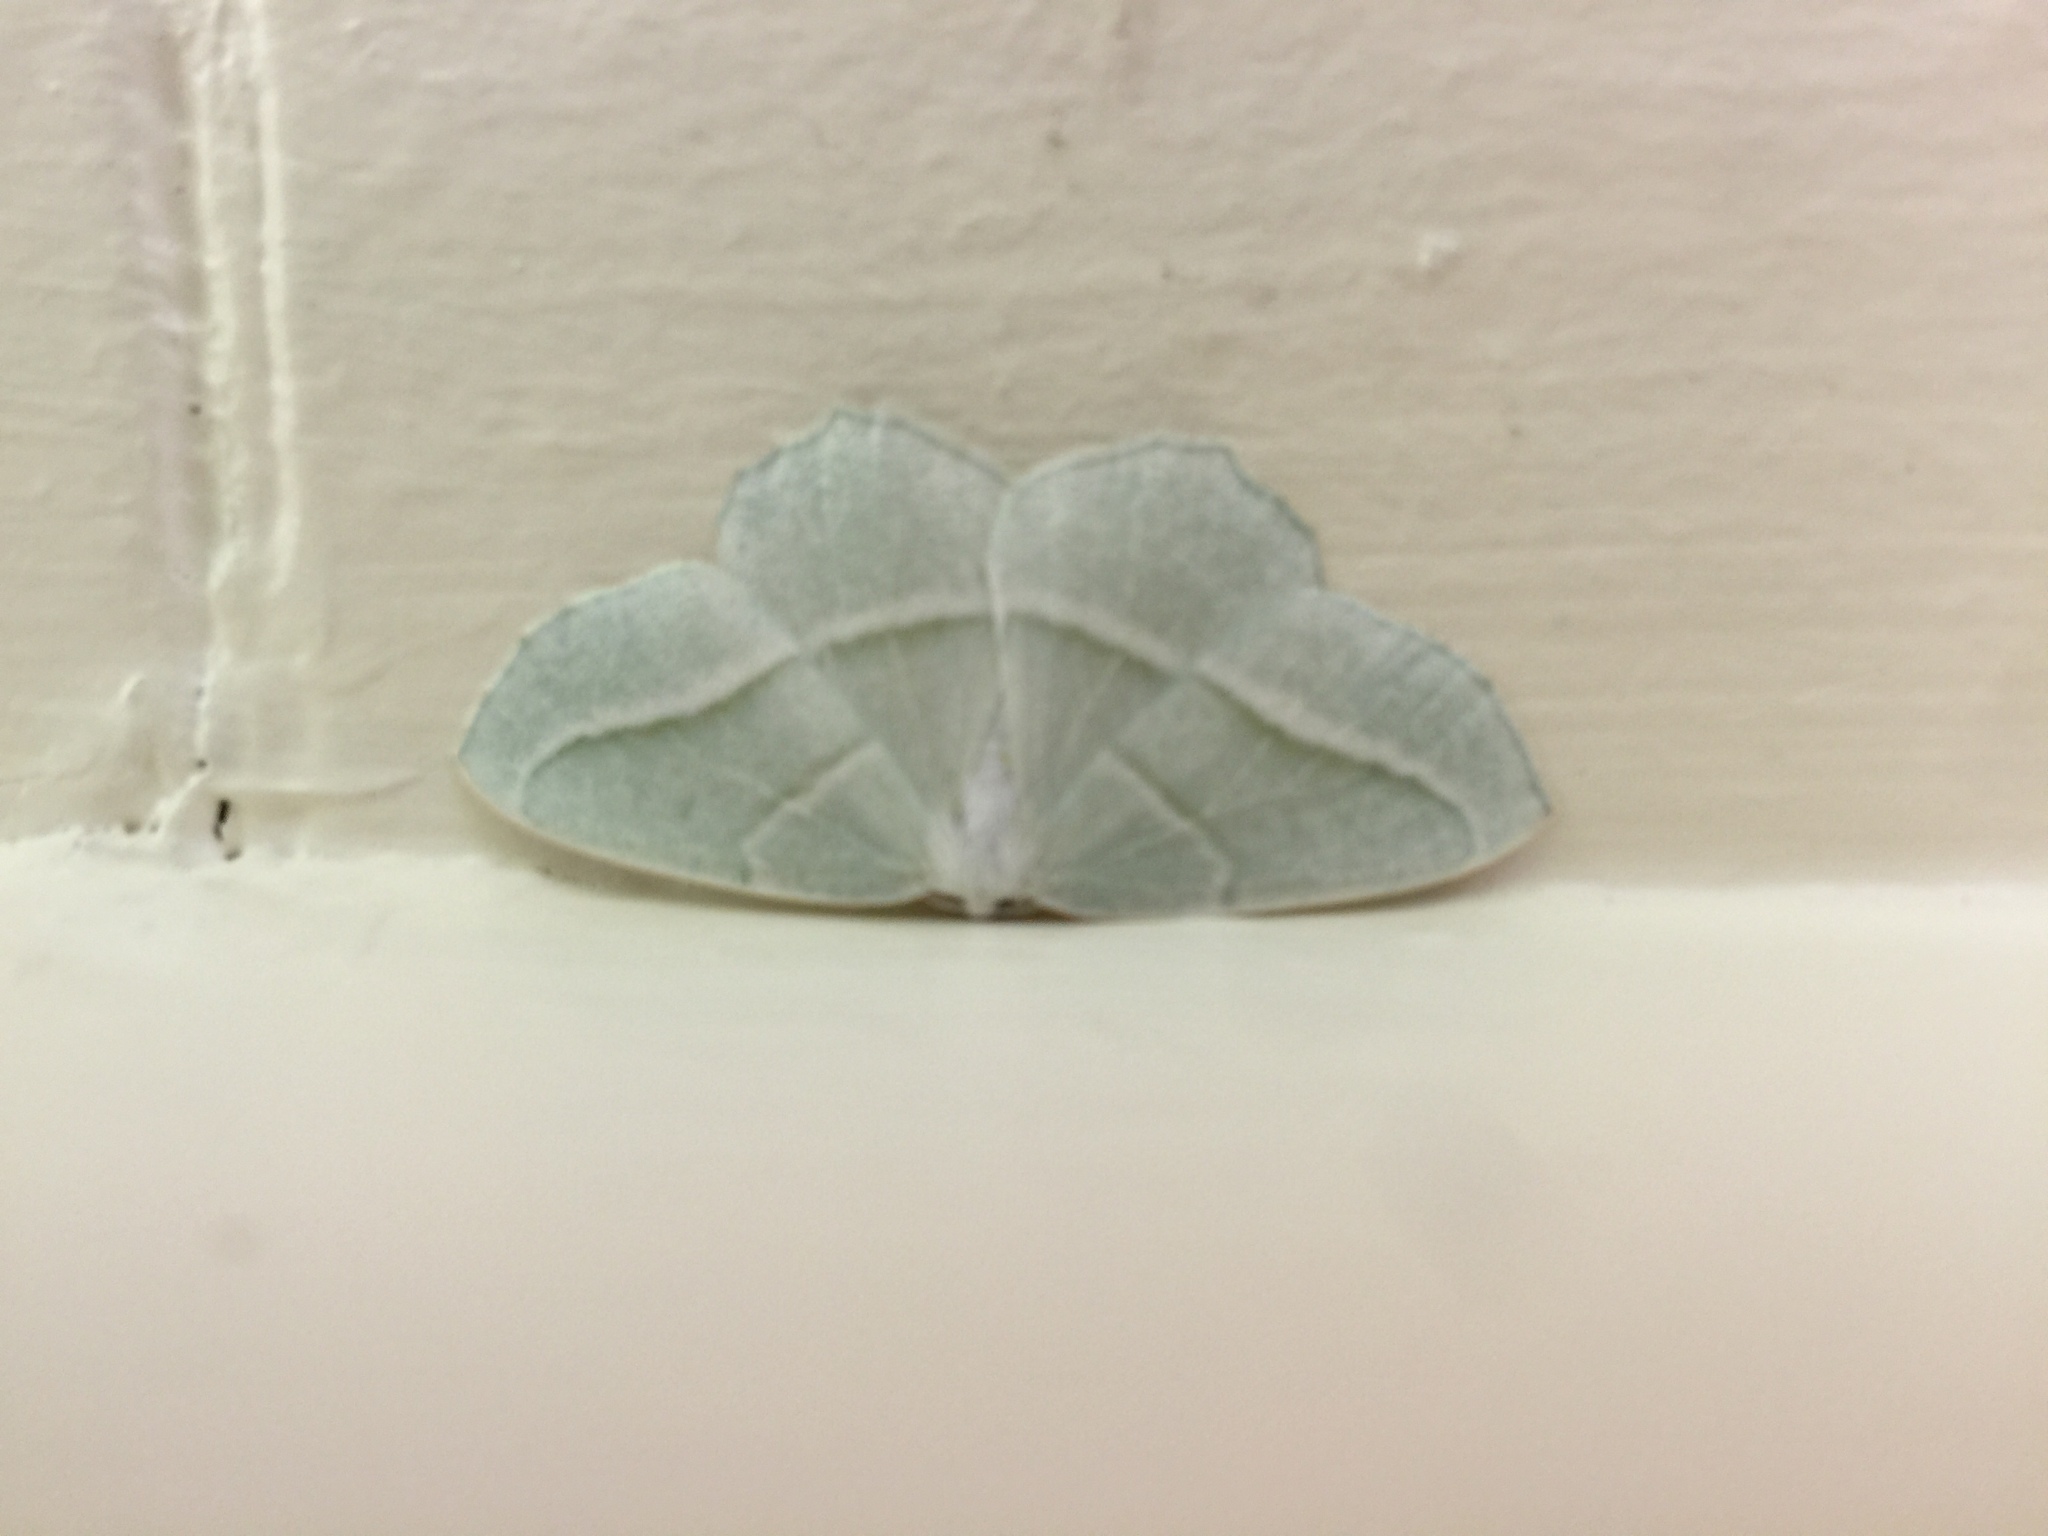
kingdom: Animalia
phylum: Arthropoda
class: Insecta
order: Lepidoptera
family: Geometridae
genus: Campaea
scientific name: Campaea perlata
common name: Fringed looper
